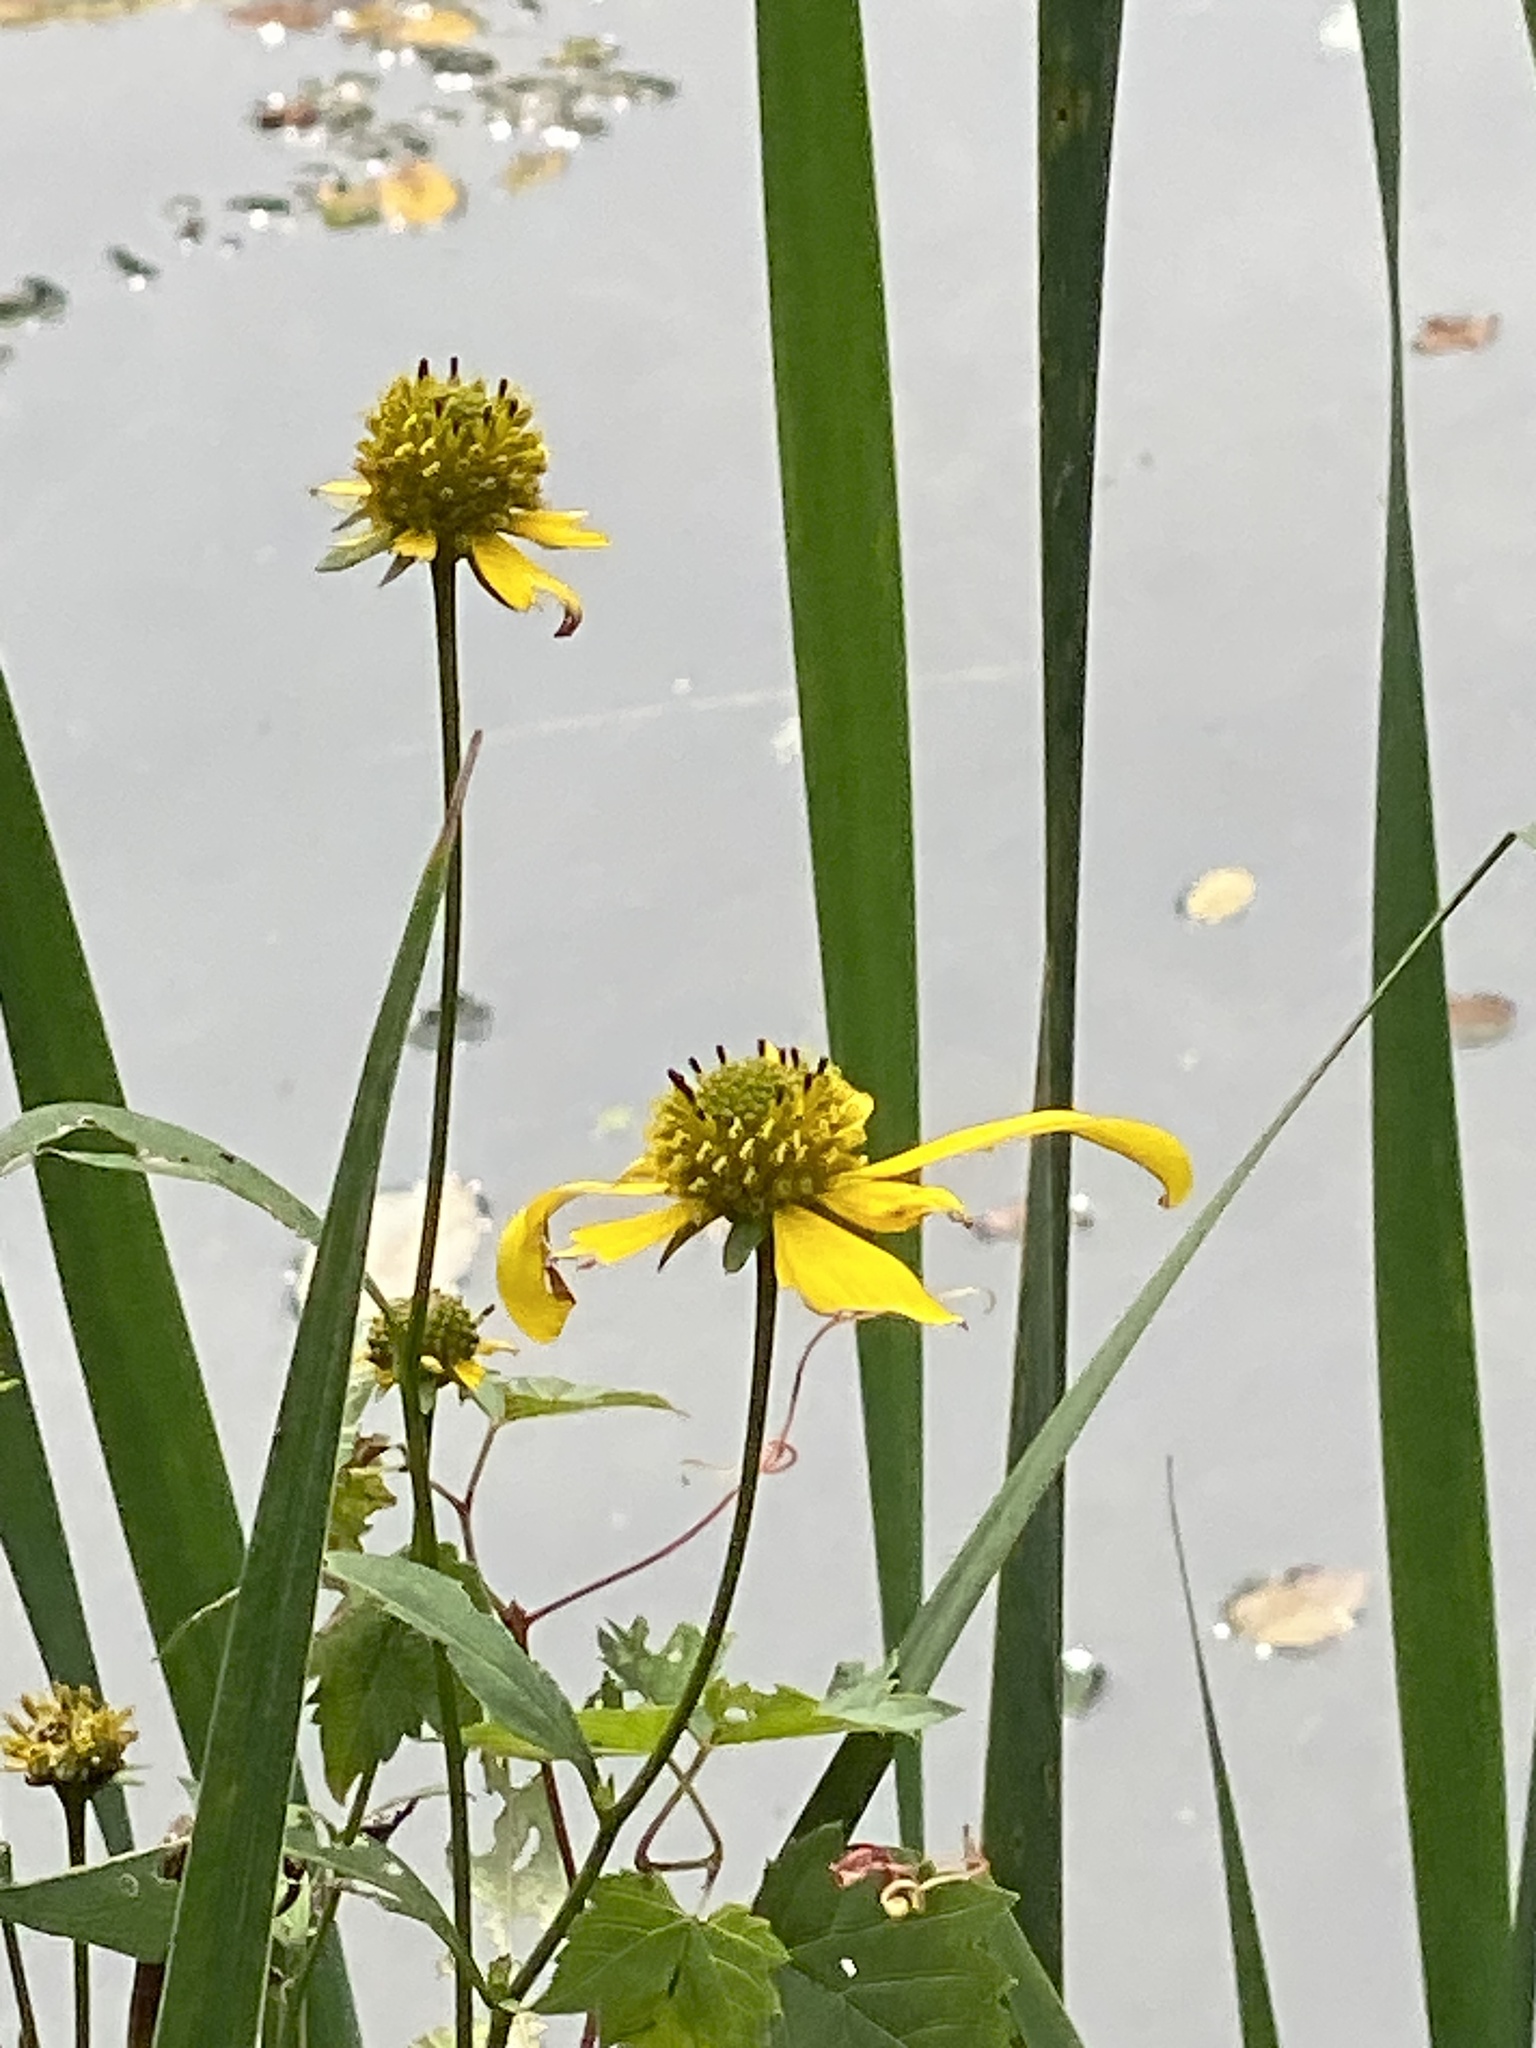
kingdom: Plantae
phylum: Tracheophyta
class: Magnoliopsida
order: Asterales
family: Asteraceae
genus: Rudbeckia
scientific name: Rudbeckia laciniata
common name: Coneflower
